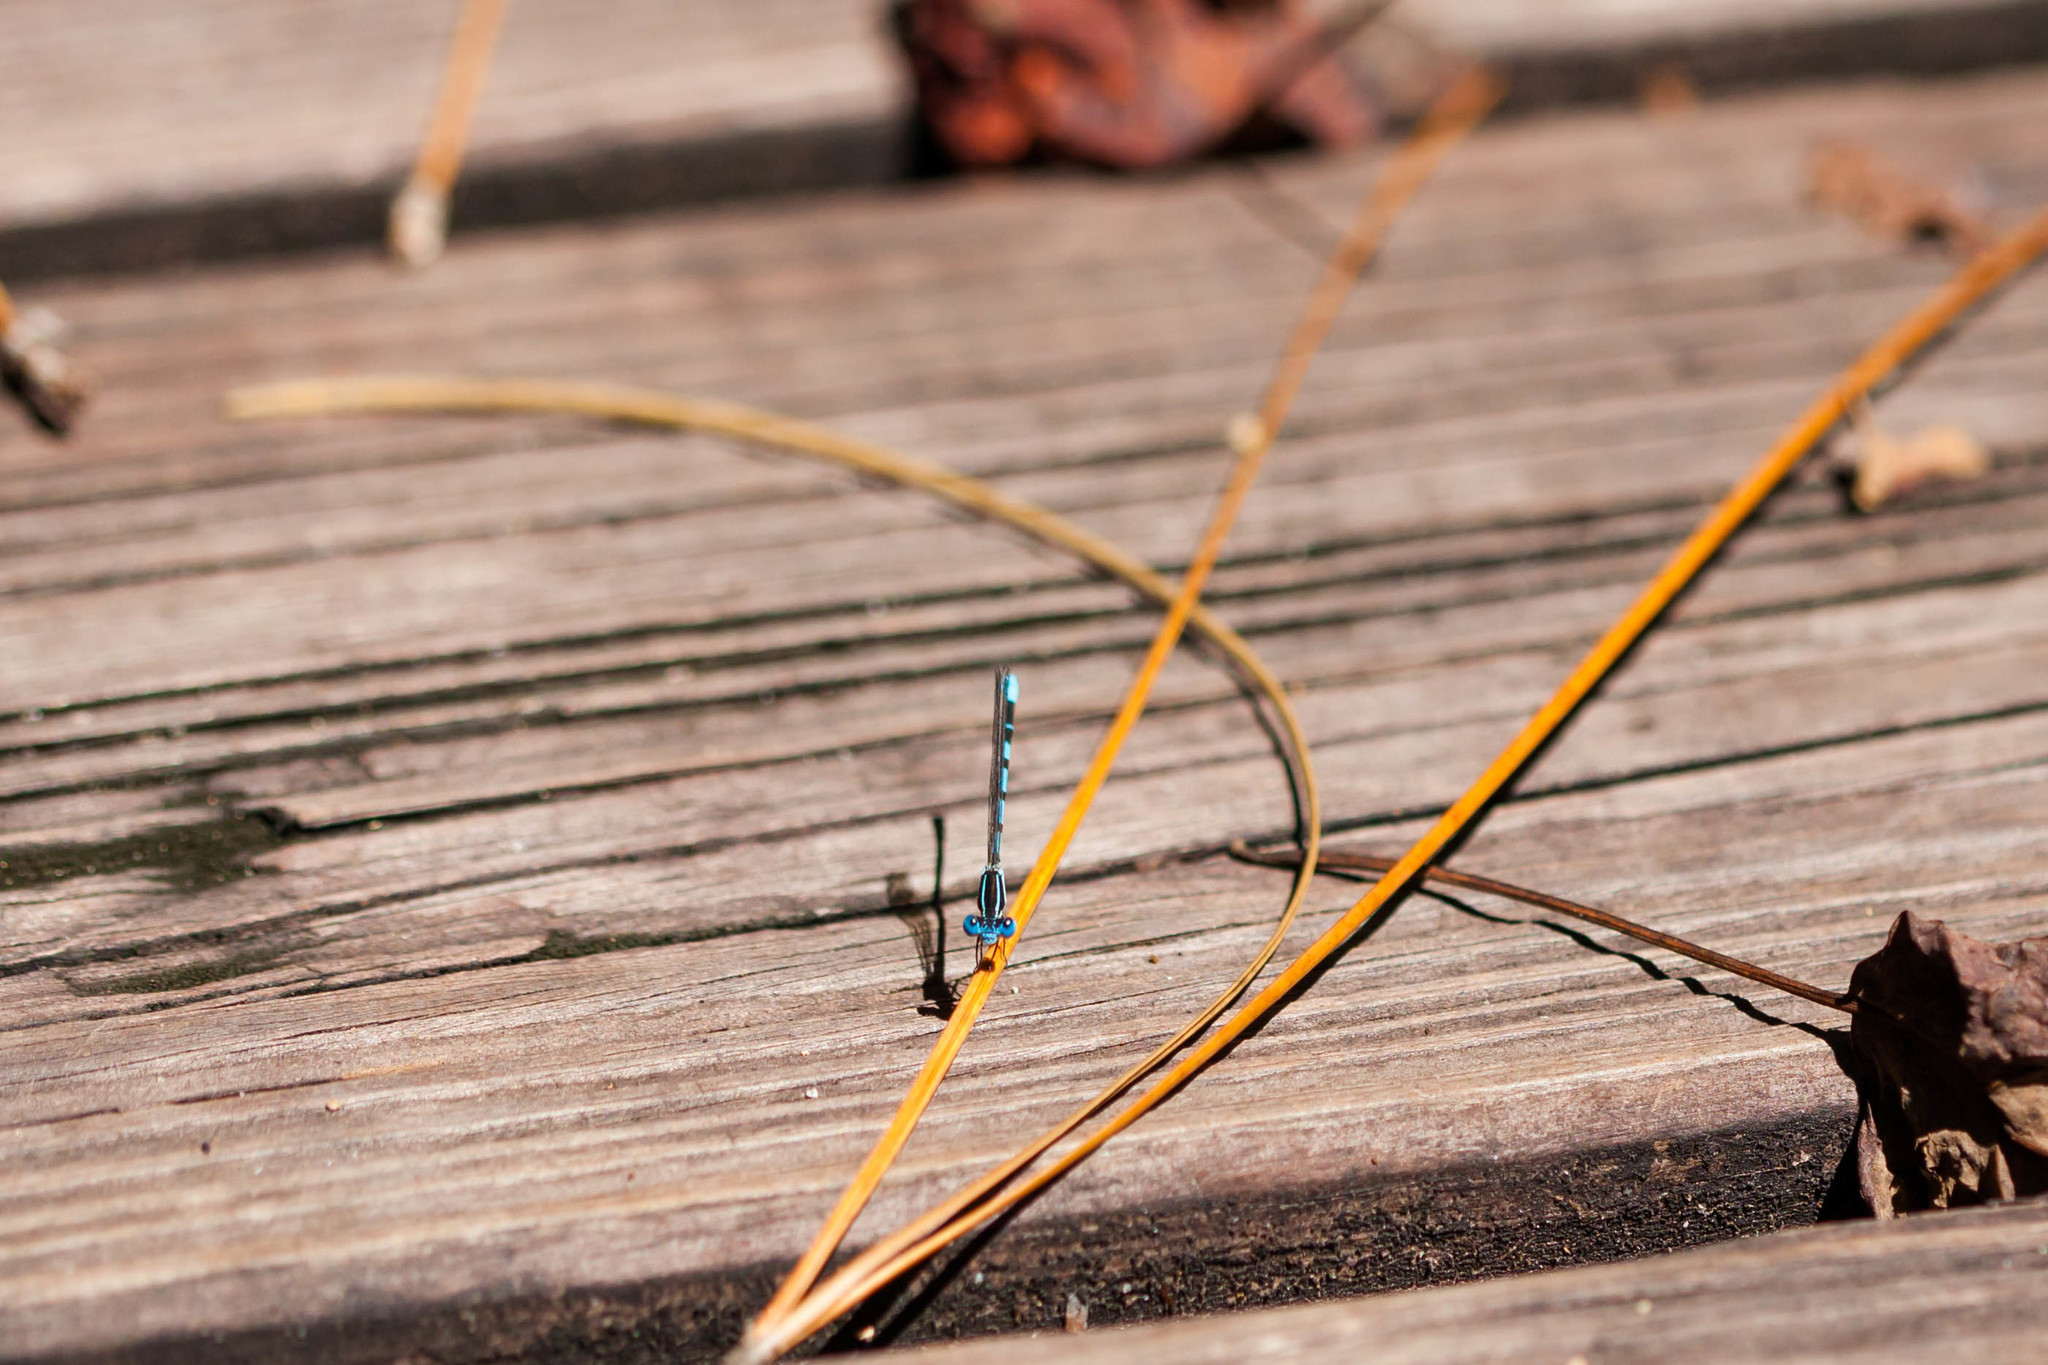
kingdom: Animalia
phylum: Arthropoda
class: Insecta
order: Odonata
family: Coenagrionidae
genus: Argia
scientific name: Argia bipunctulata
